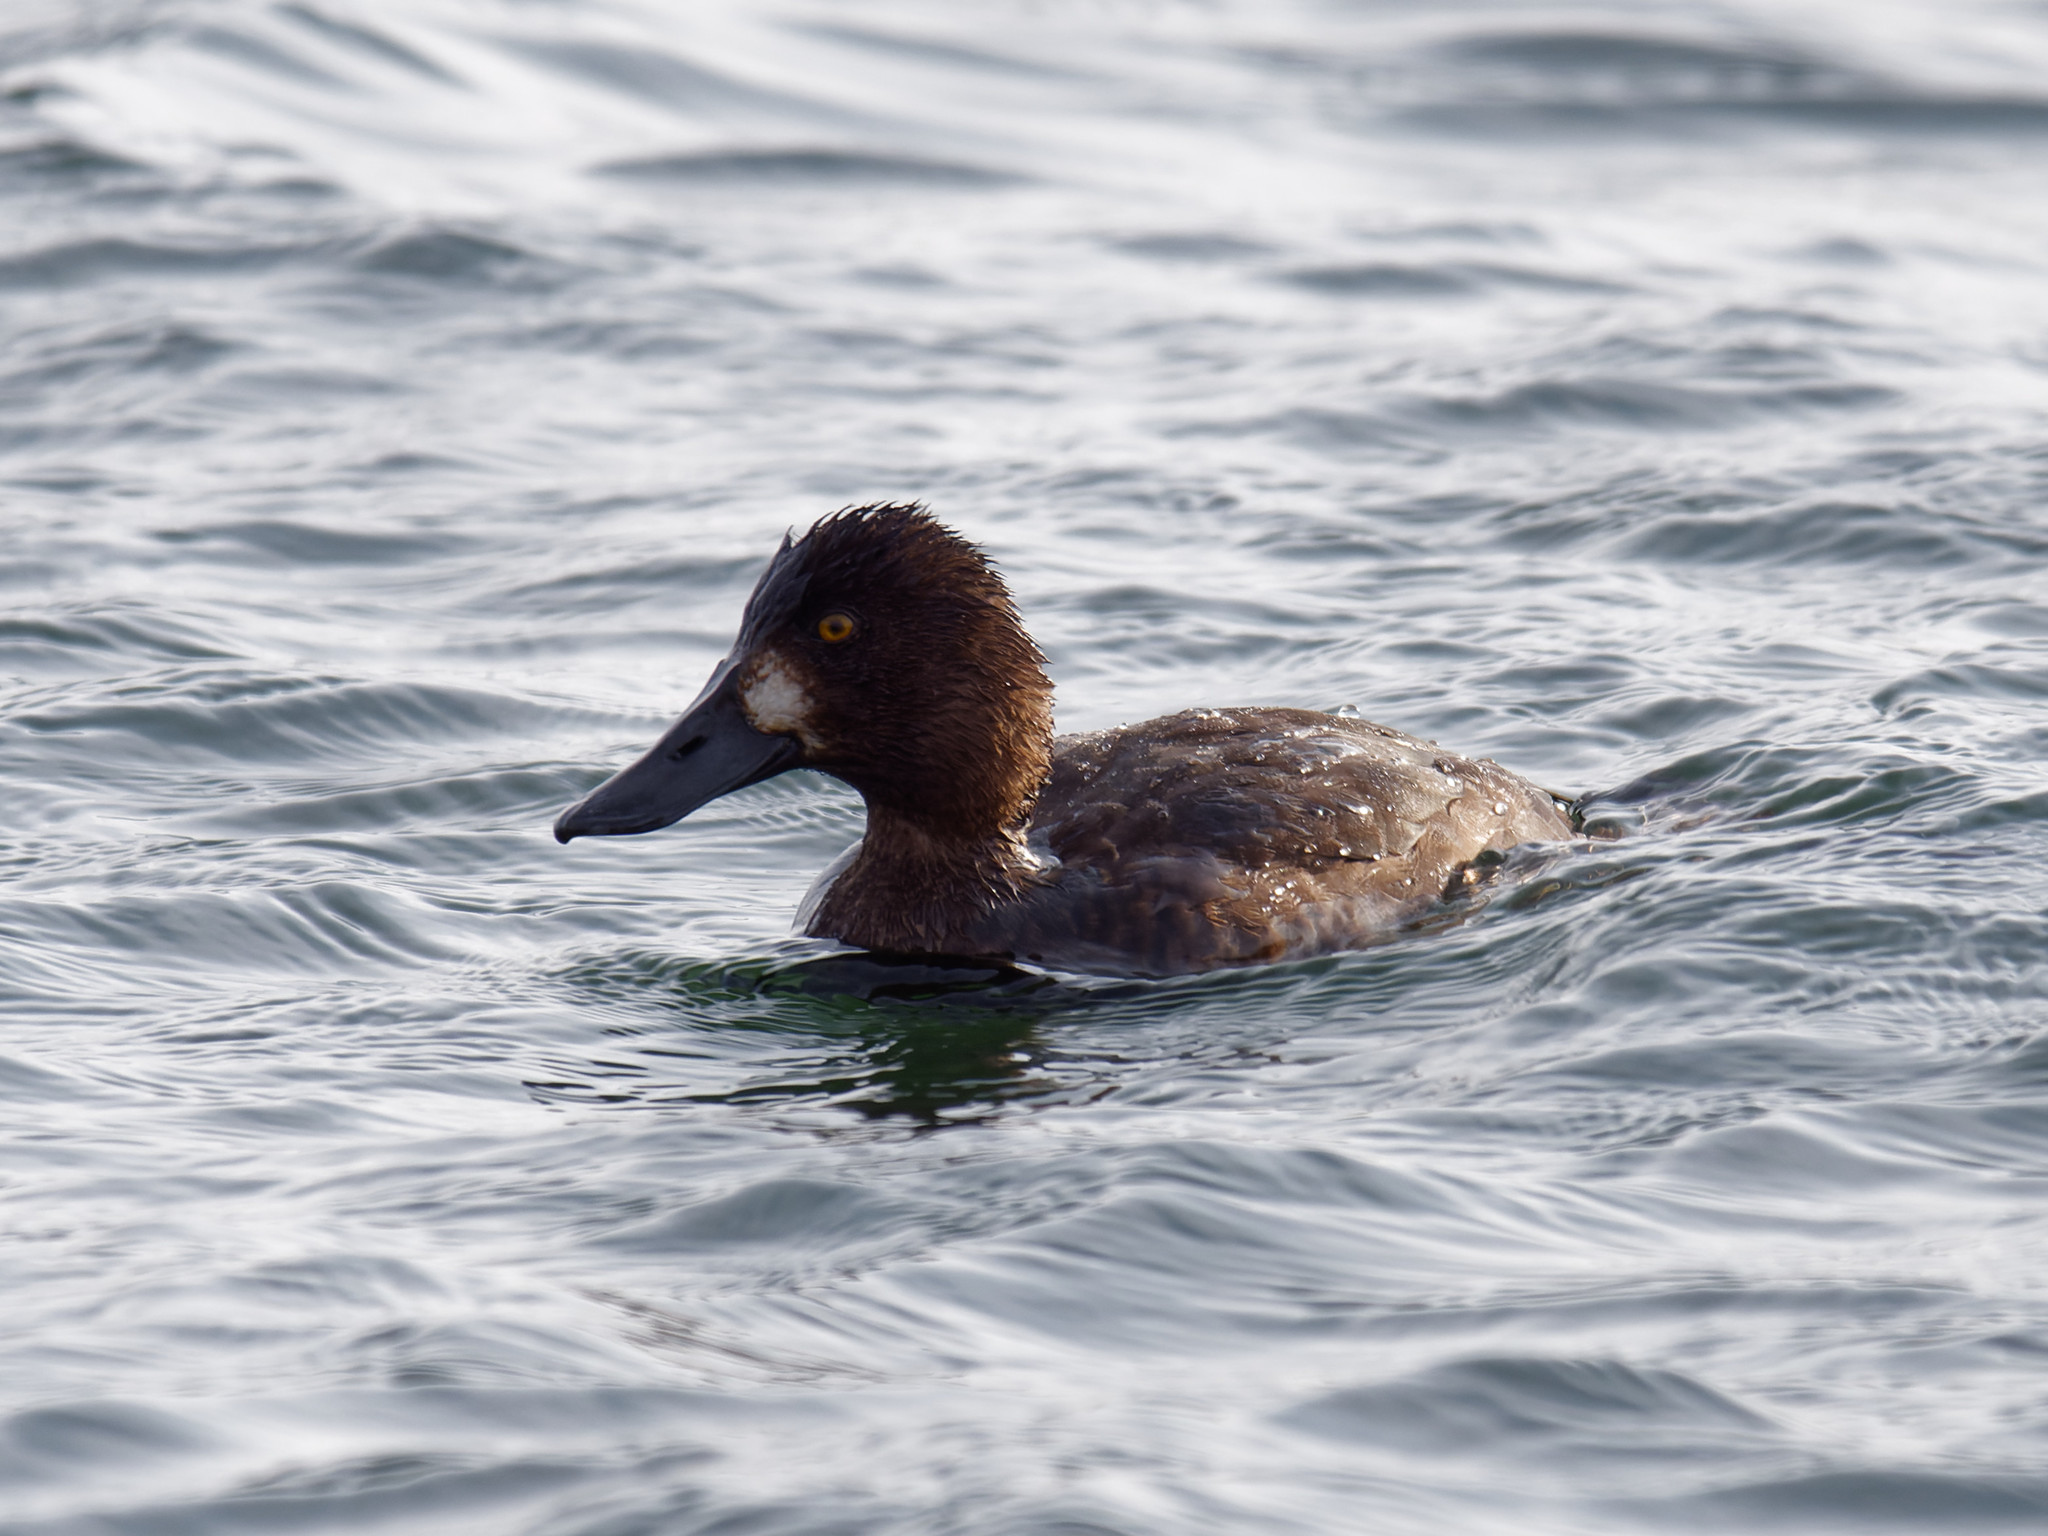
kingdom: Animalia
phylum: Chordata
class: Aves
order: Anseriformes
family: Anatidae
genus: Aythya
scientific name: Aythya marila
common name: Greater scaup
